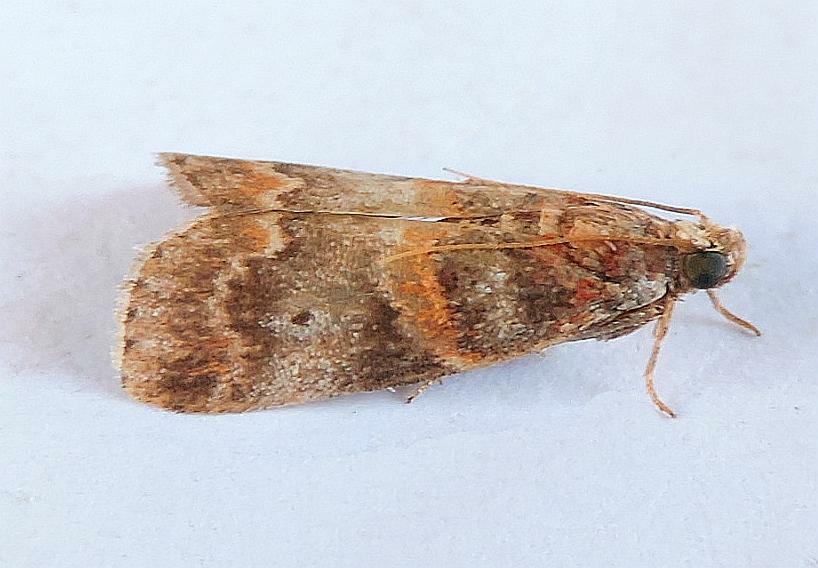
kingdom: Animalia
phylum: Arthropoda
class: Insecta
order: Lepidoptera
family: Pyralidae
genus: Acrobasis
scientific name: Acrobasis angusella
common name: Hickory leafstem borer moth
